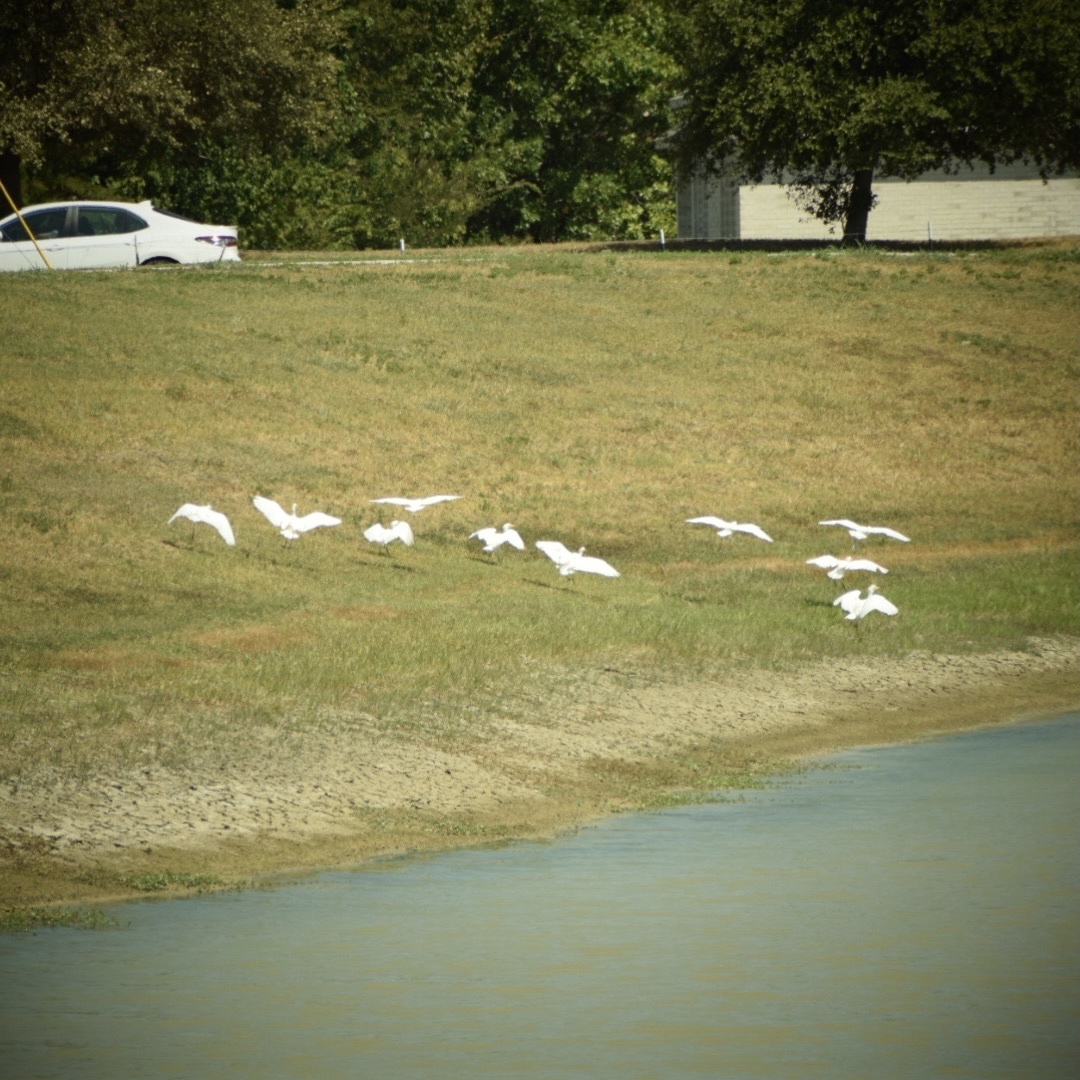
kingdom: Animalia
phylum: Chordata
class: Aves
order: Pelecaniformes
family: Ardeidae
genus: Bubulcus
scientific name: Bubulcus ibis
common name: Cattle egret
